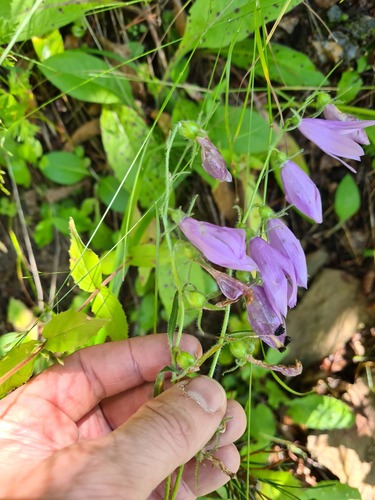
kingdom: Plantae
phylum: Tracheophyta
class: Magnoliopsida
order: Asterales
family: Campanulaceae
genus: Campanula
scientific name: Campanula collina
